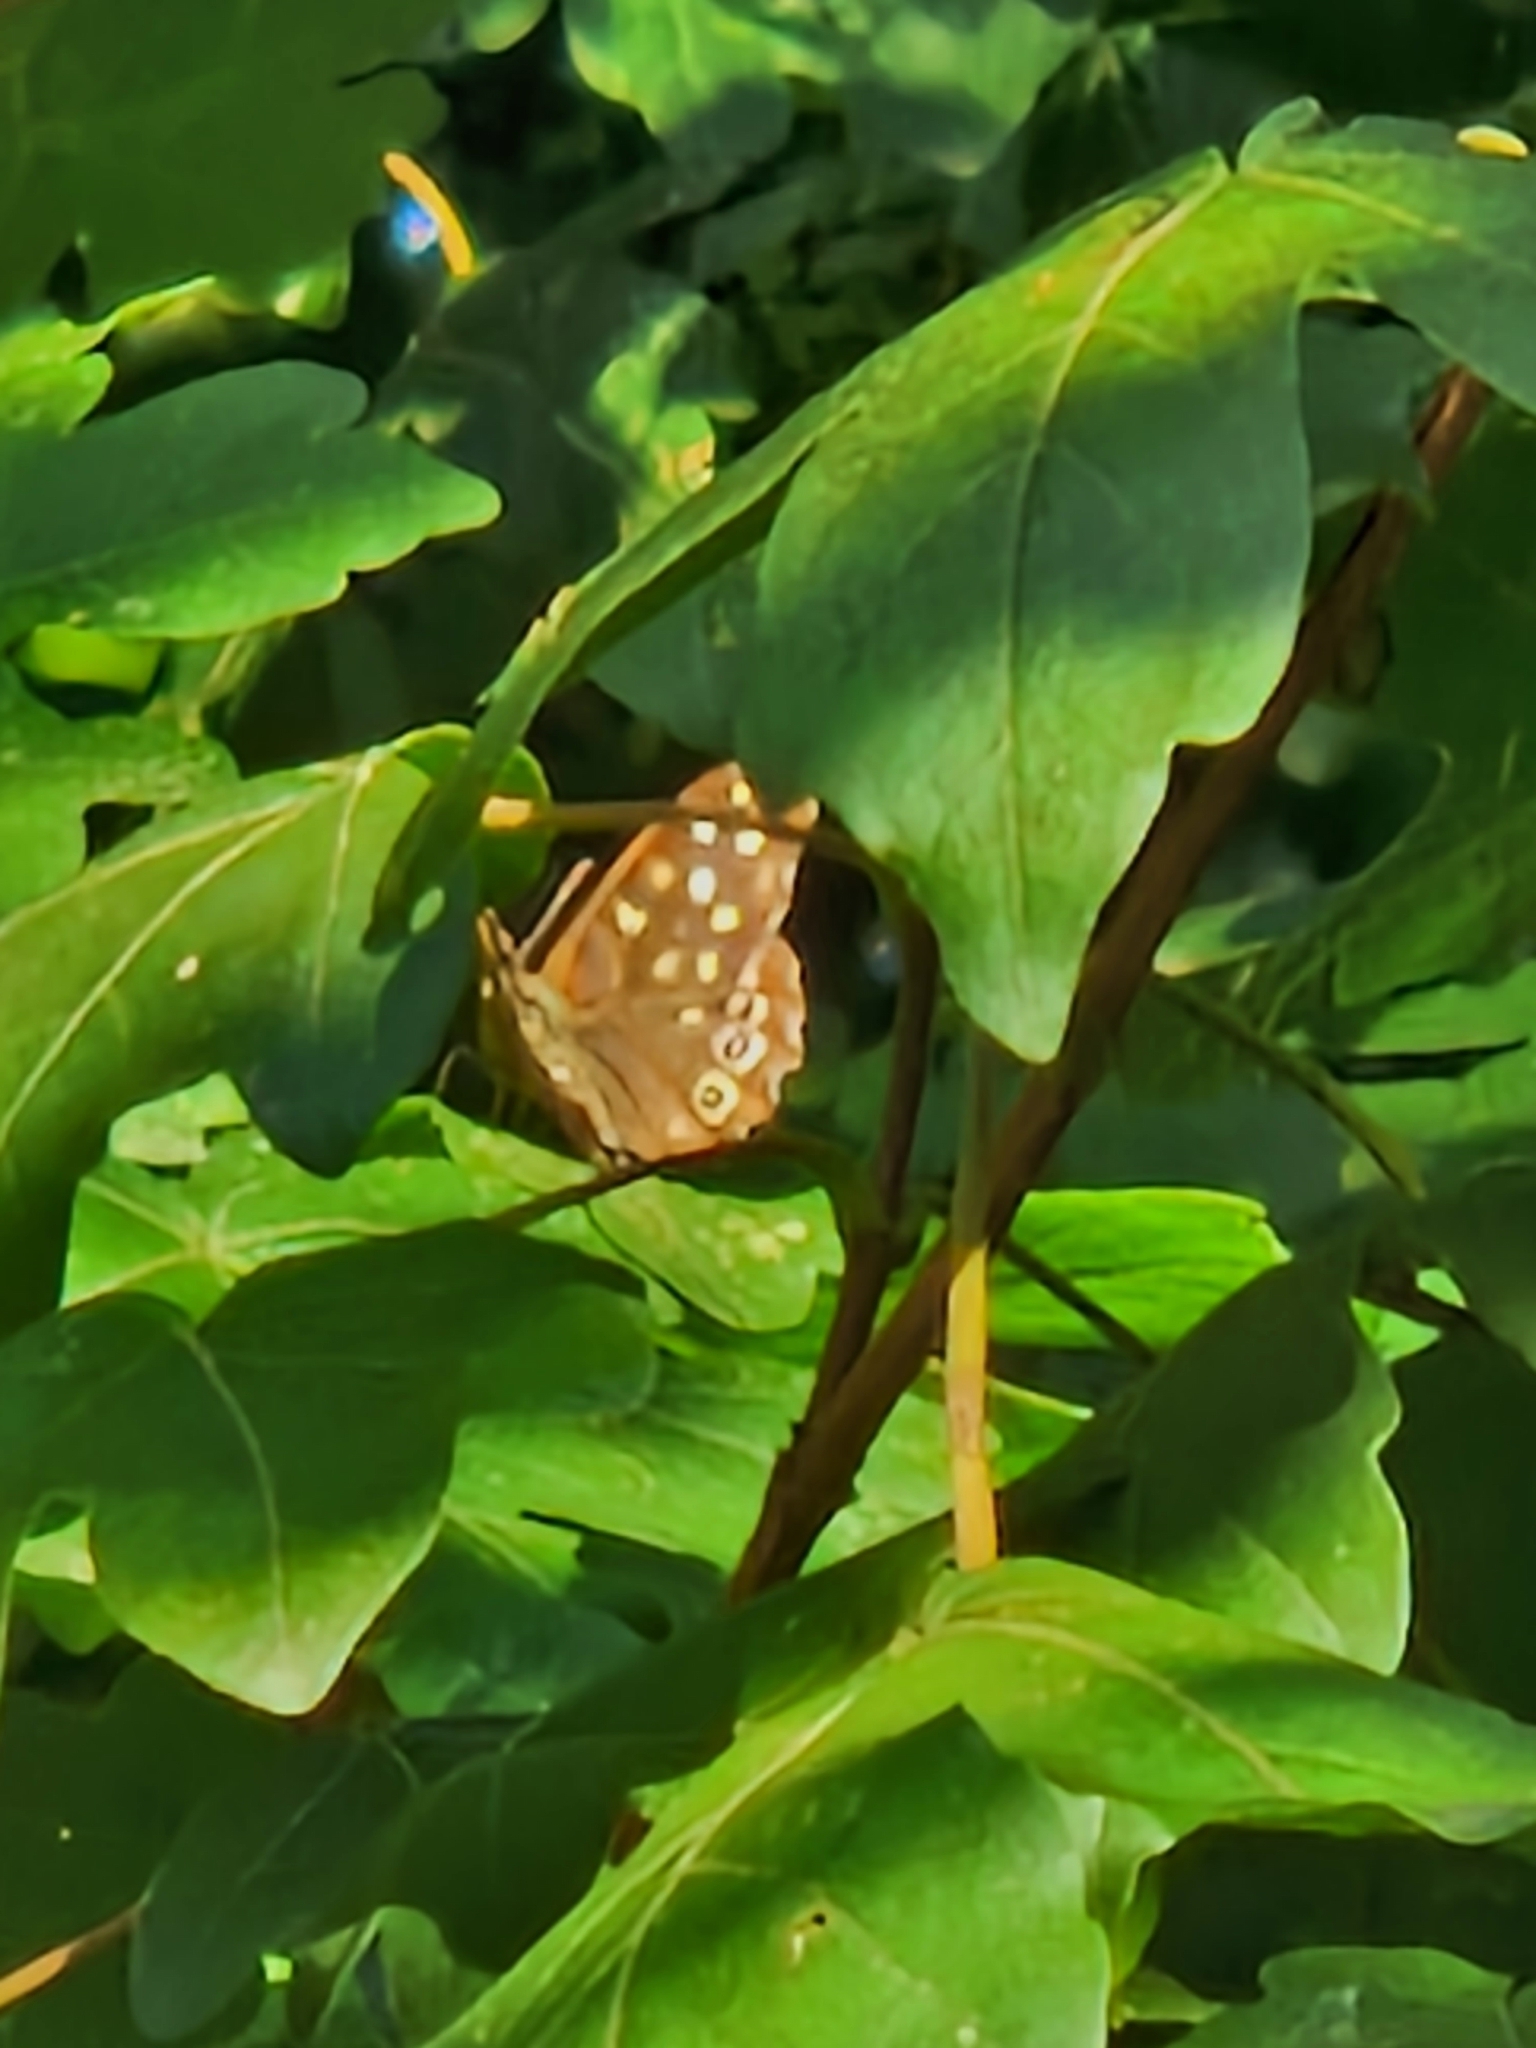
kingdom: Animalia
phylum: Arthropoda
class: Insecta
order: Lepidoptera
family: Nymphalidae
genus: Pararge
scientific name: Pararge aegeria
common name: Speckled wood
